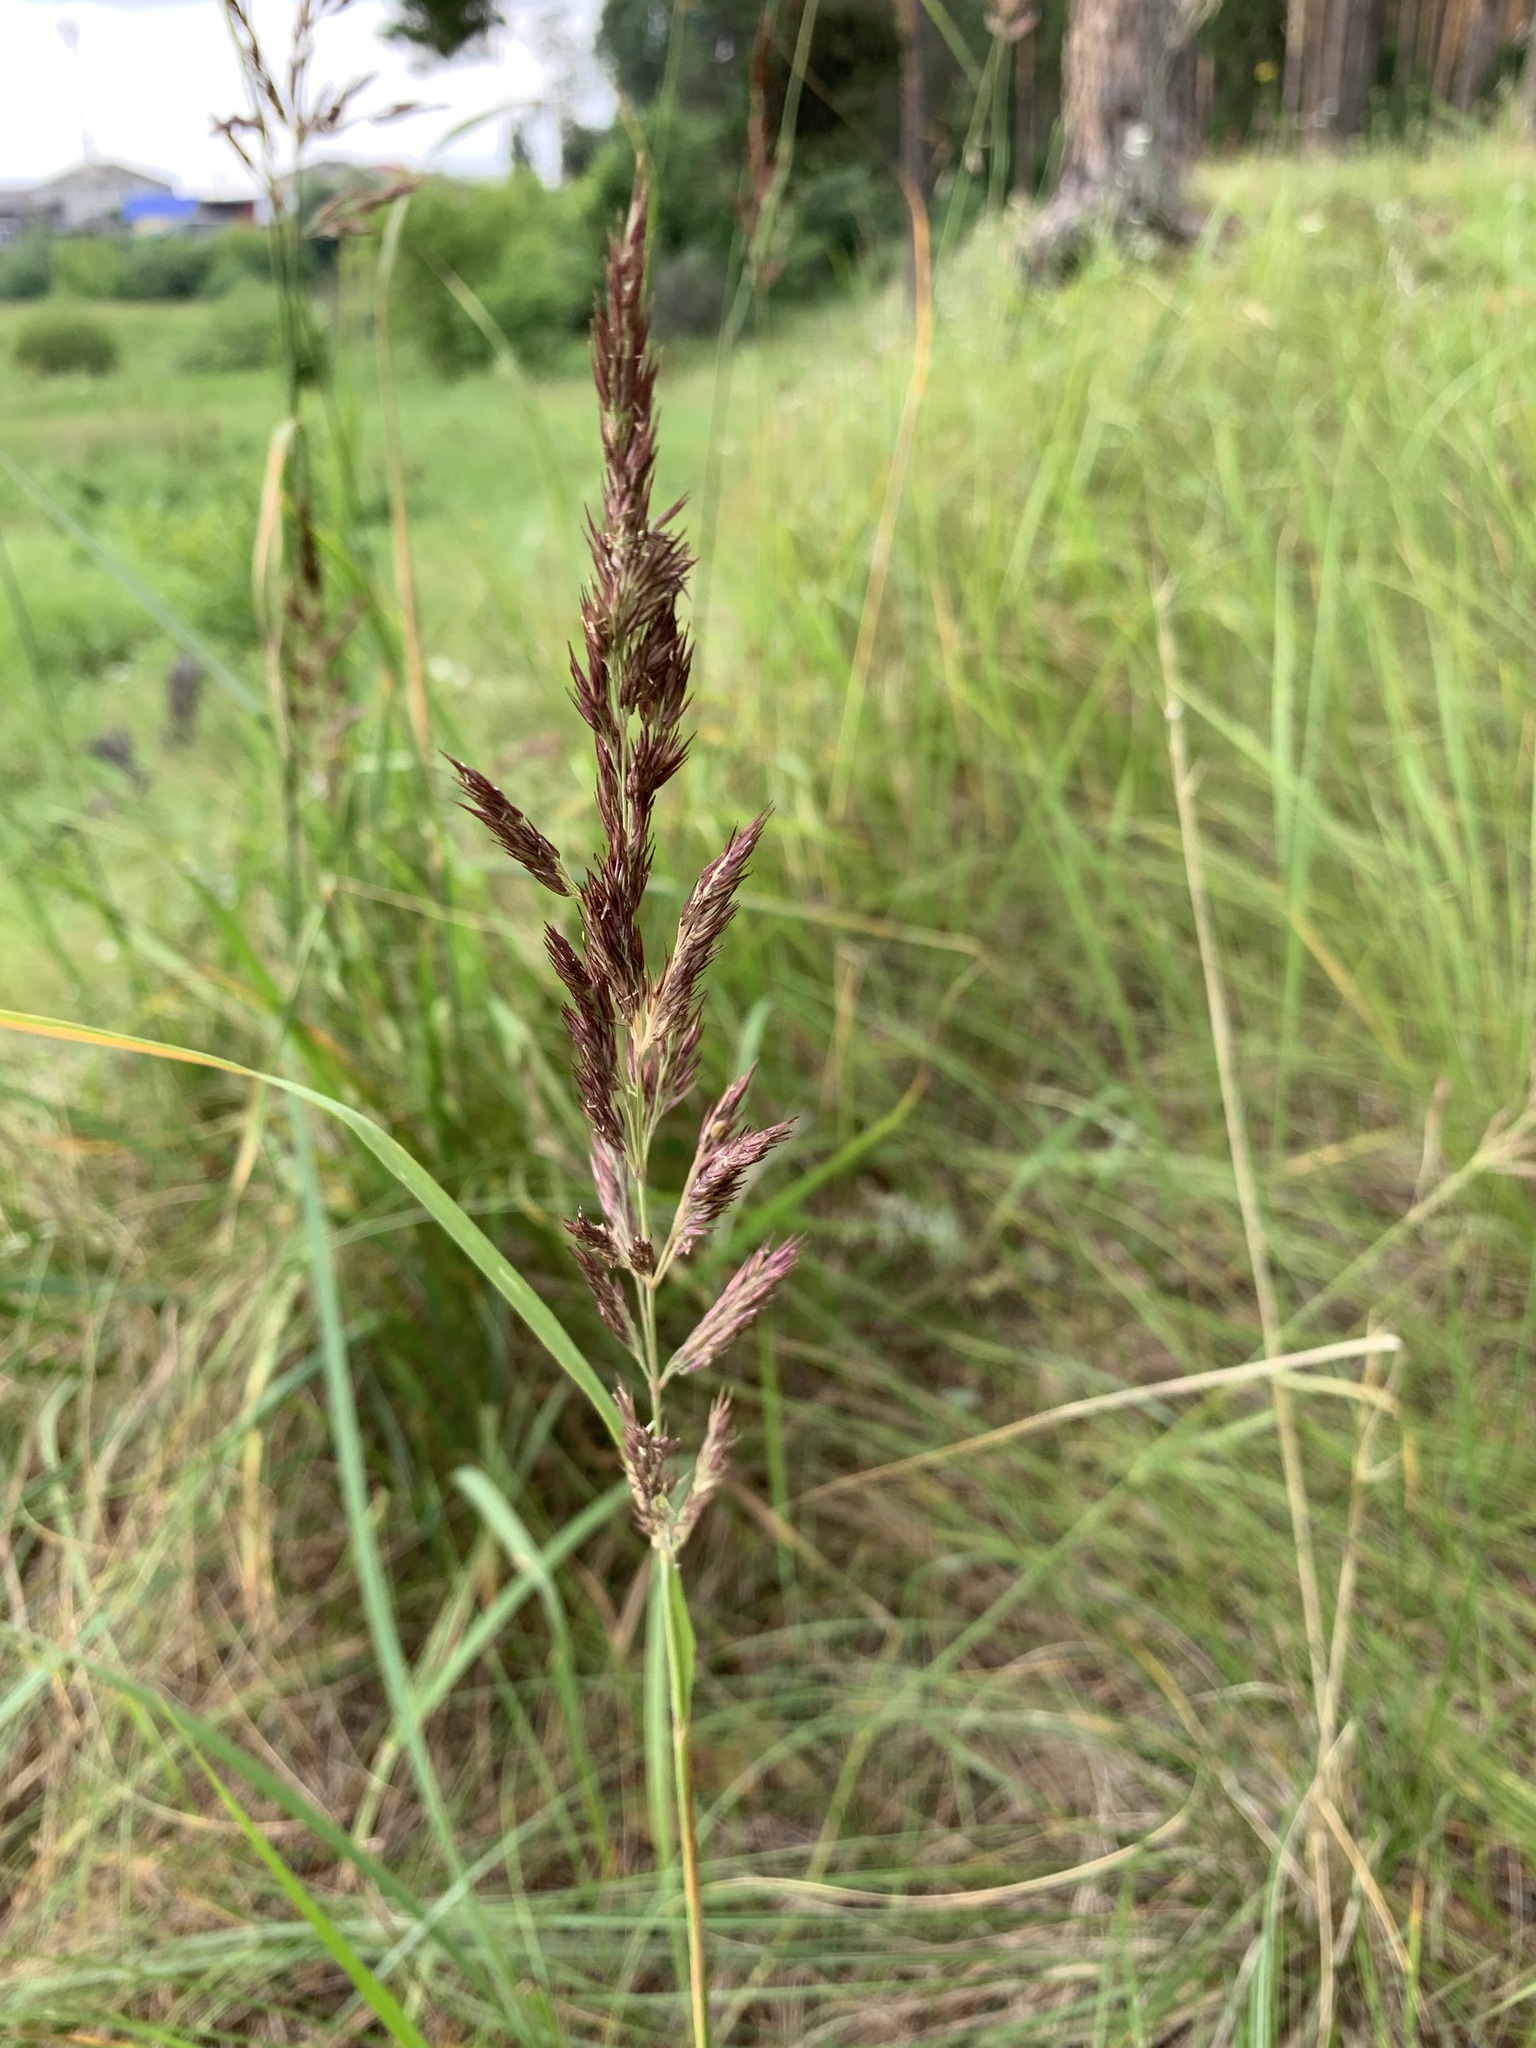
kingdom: Plantae
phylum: Tracheophyta
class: Liliopsida
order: Poales
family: Poaceae
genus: Calamagrostis
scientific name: Calamagrostis epigejos
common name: Wood small-reed
